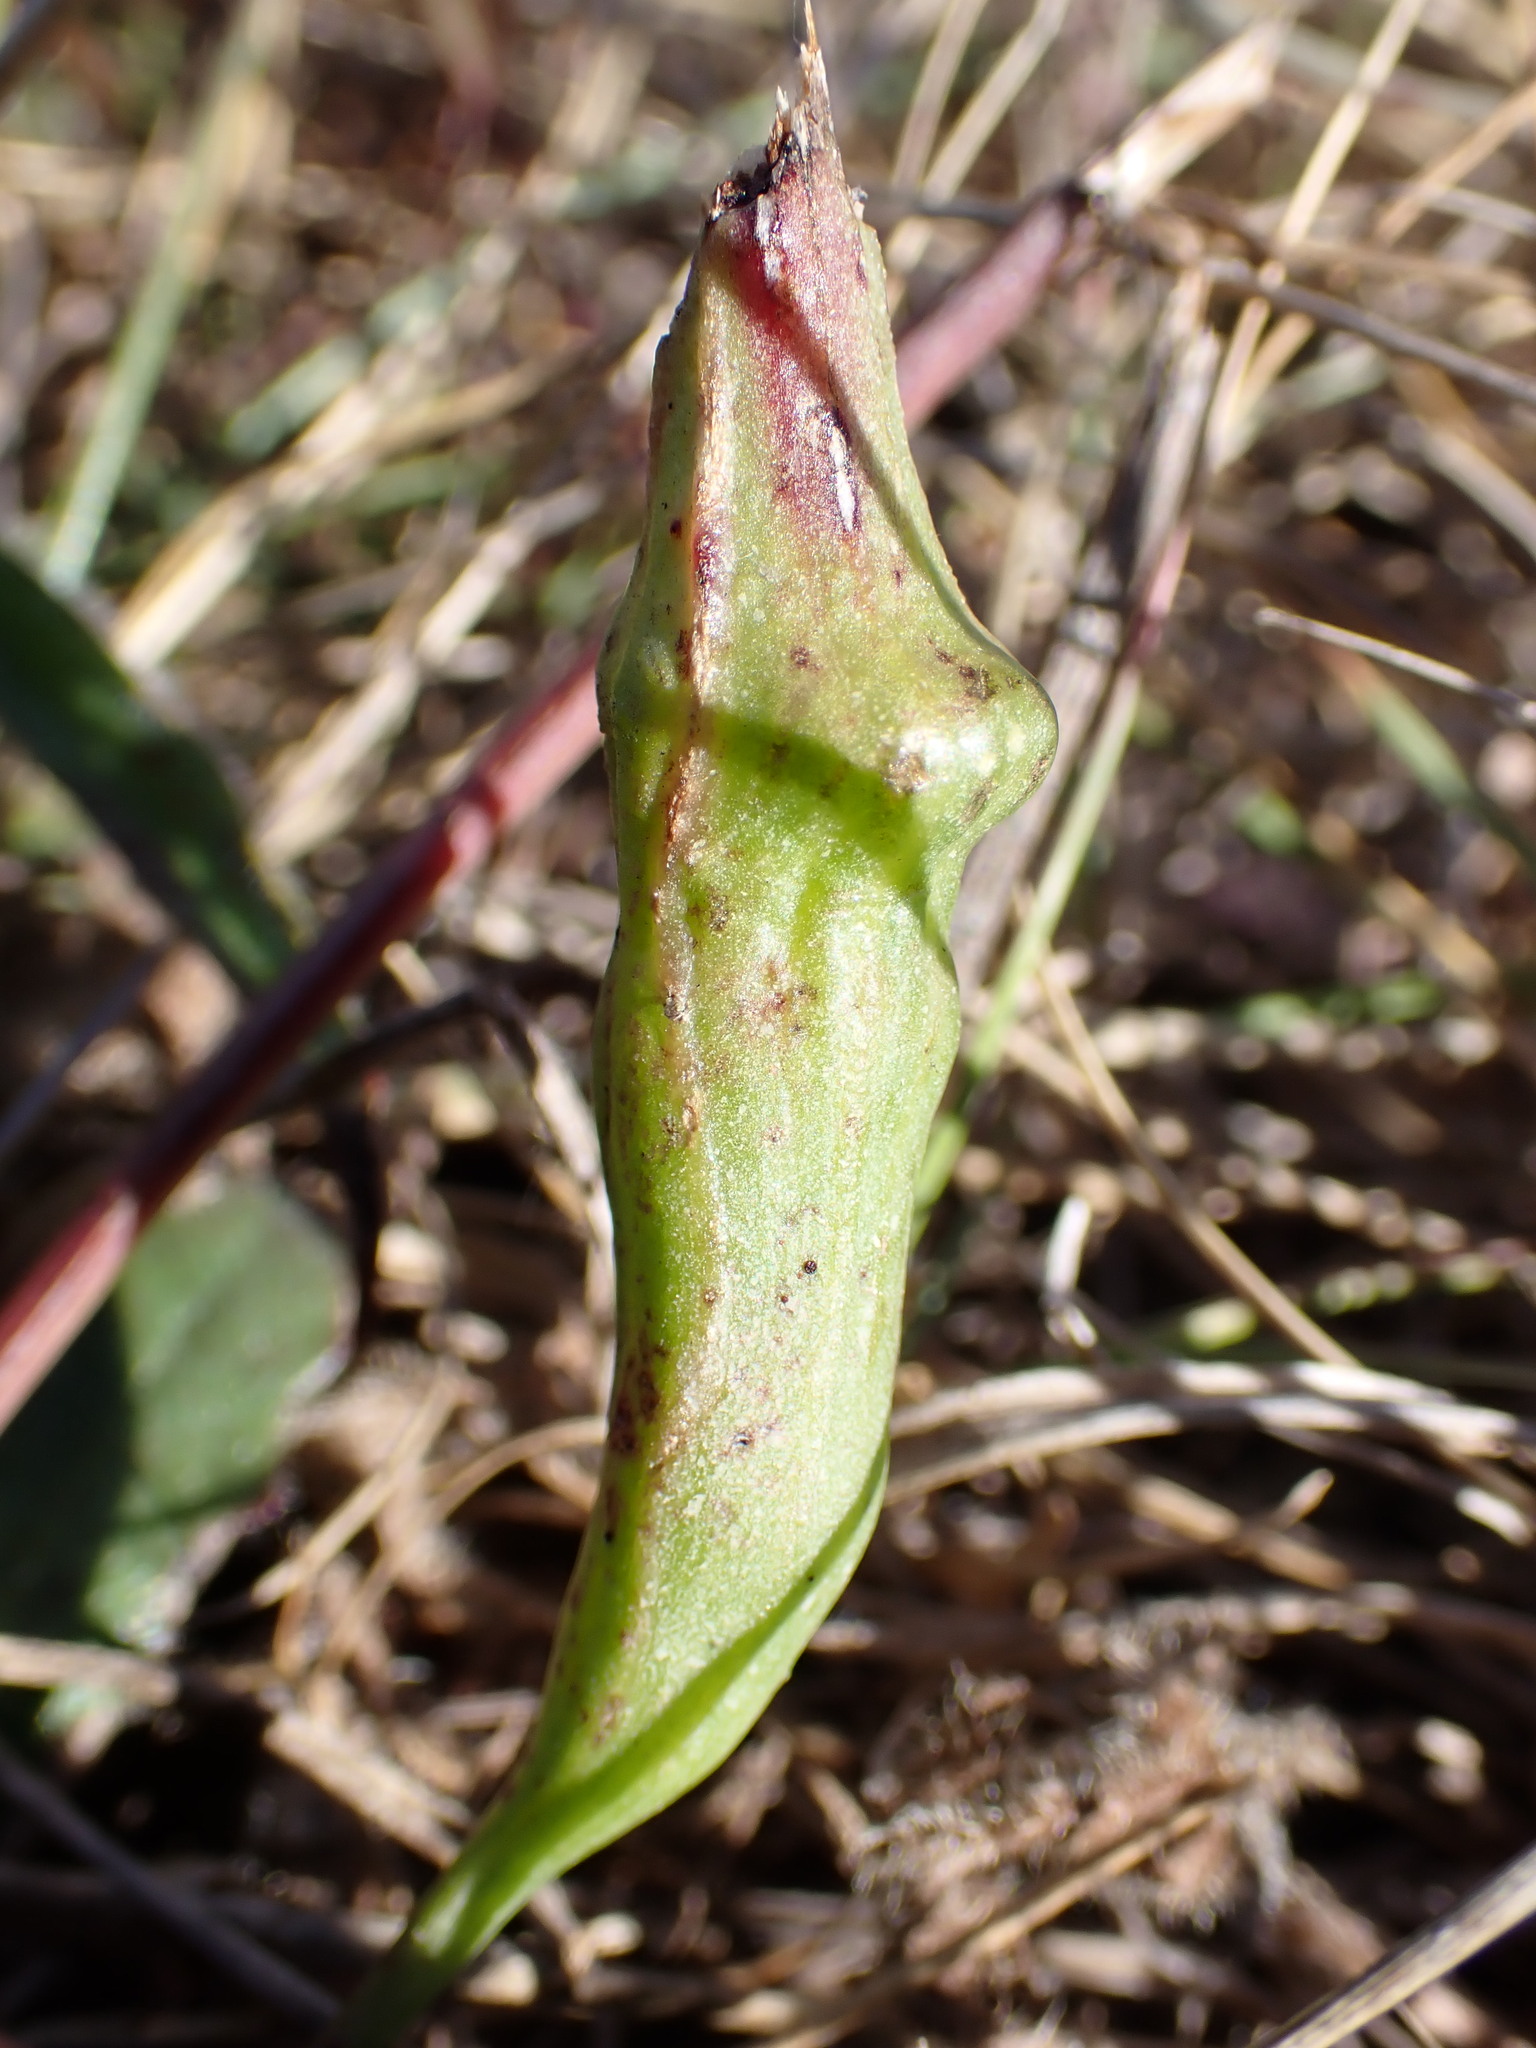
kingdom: Animalia
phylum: Arthropoda
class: Insecta
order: Hymenoptera
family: Cynipidae
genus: Phanacis
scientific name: Phanacis hypochoeridis
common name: Gall wasp
